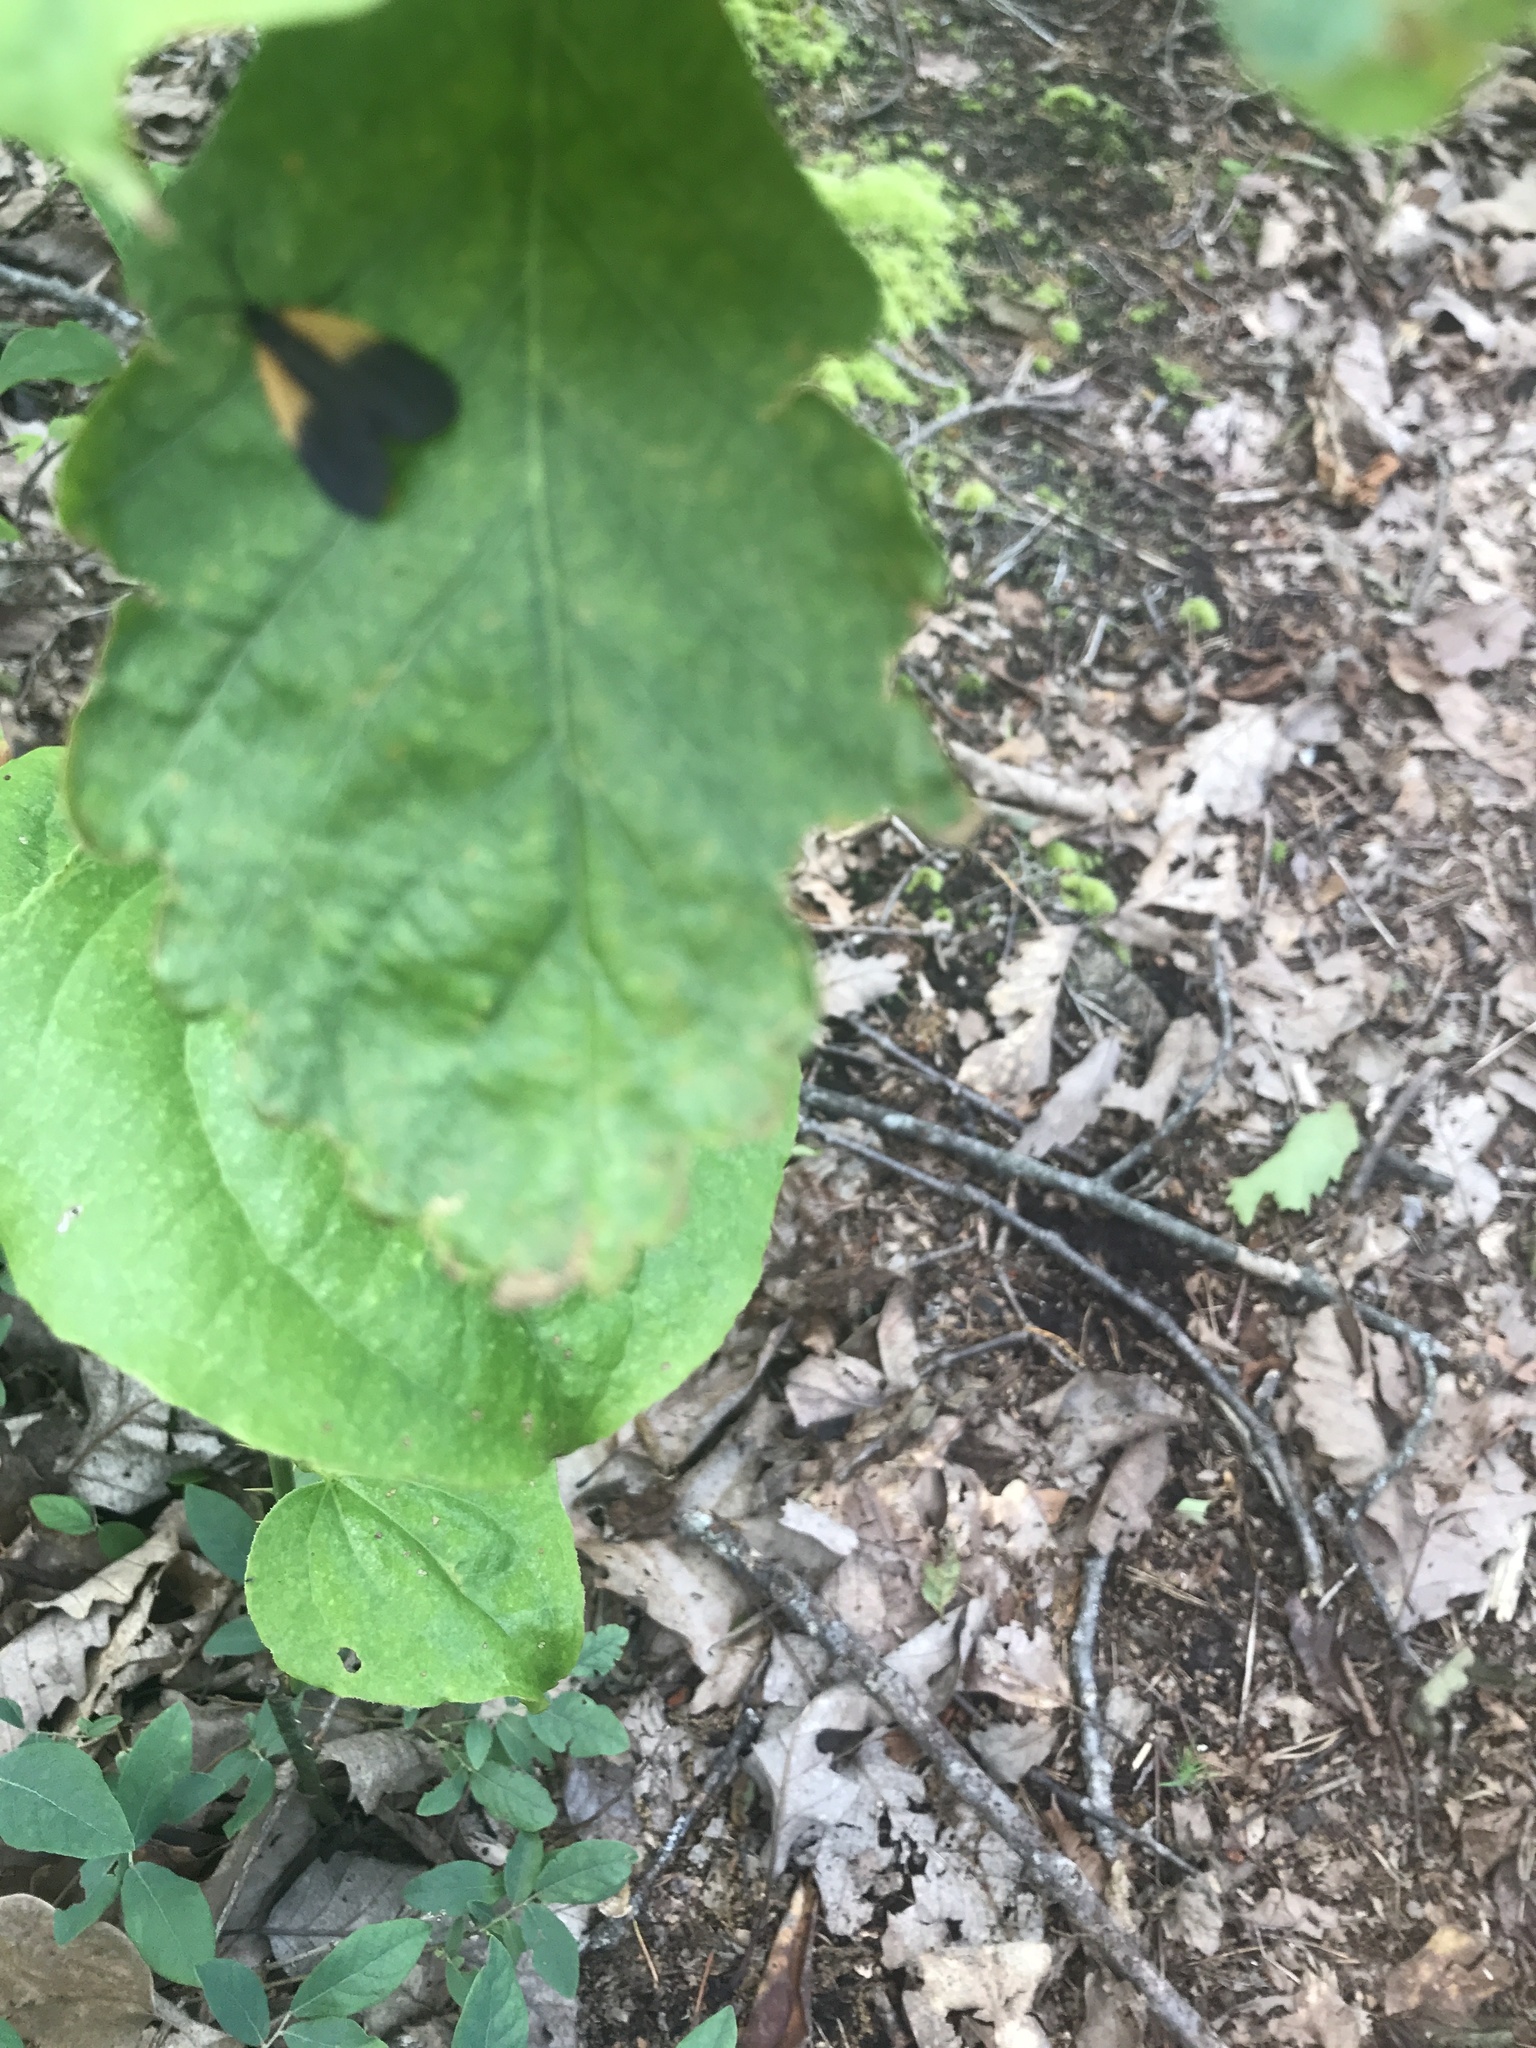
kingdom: Animalia
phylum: Arthropoda
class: Insecta
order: Lepidoptera
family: Zygaenidae
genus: Malthaca
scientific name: Malthaca dimidiata
